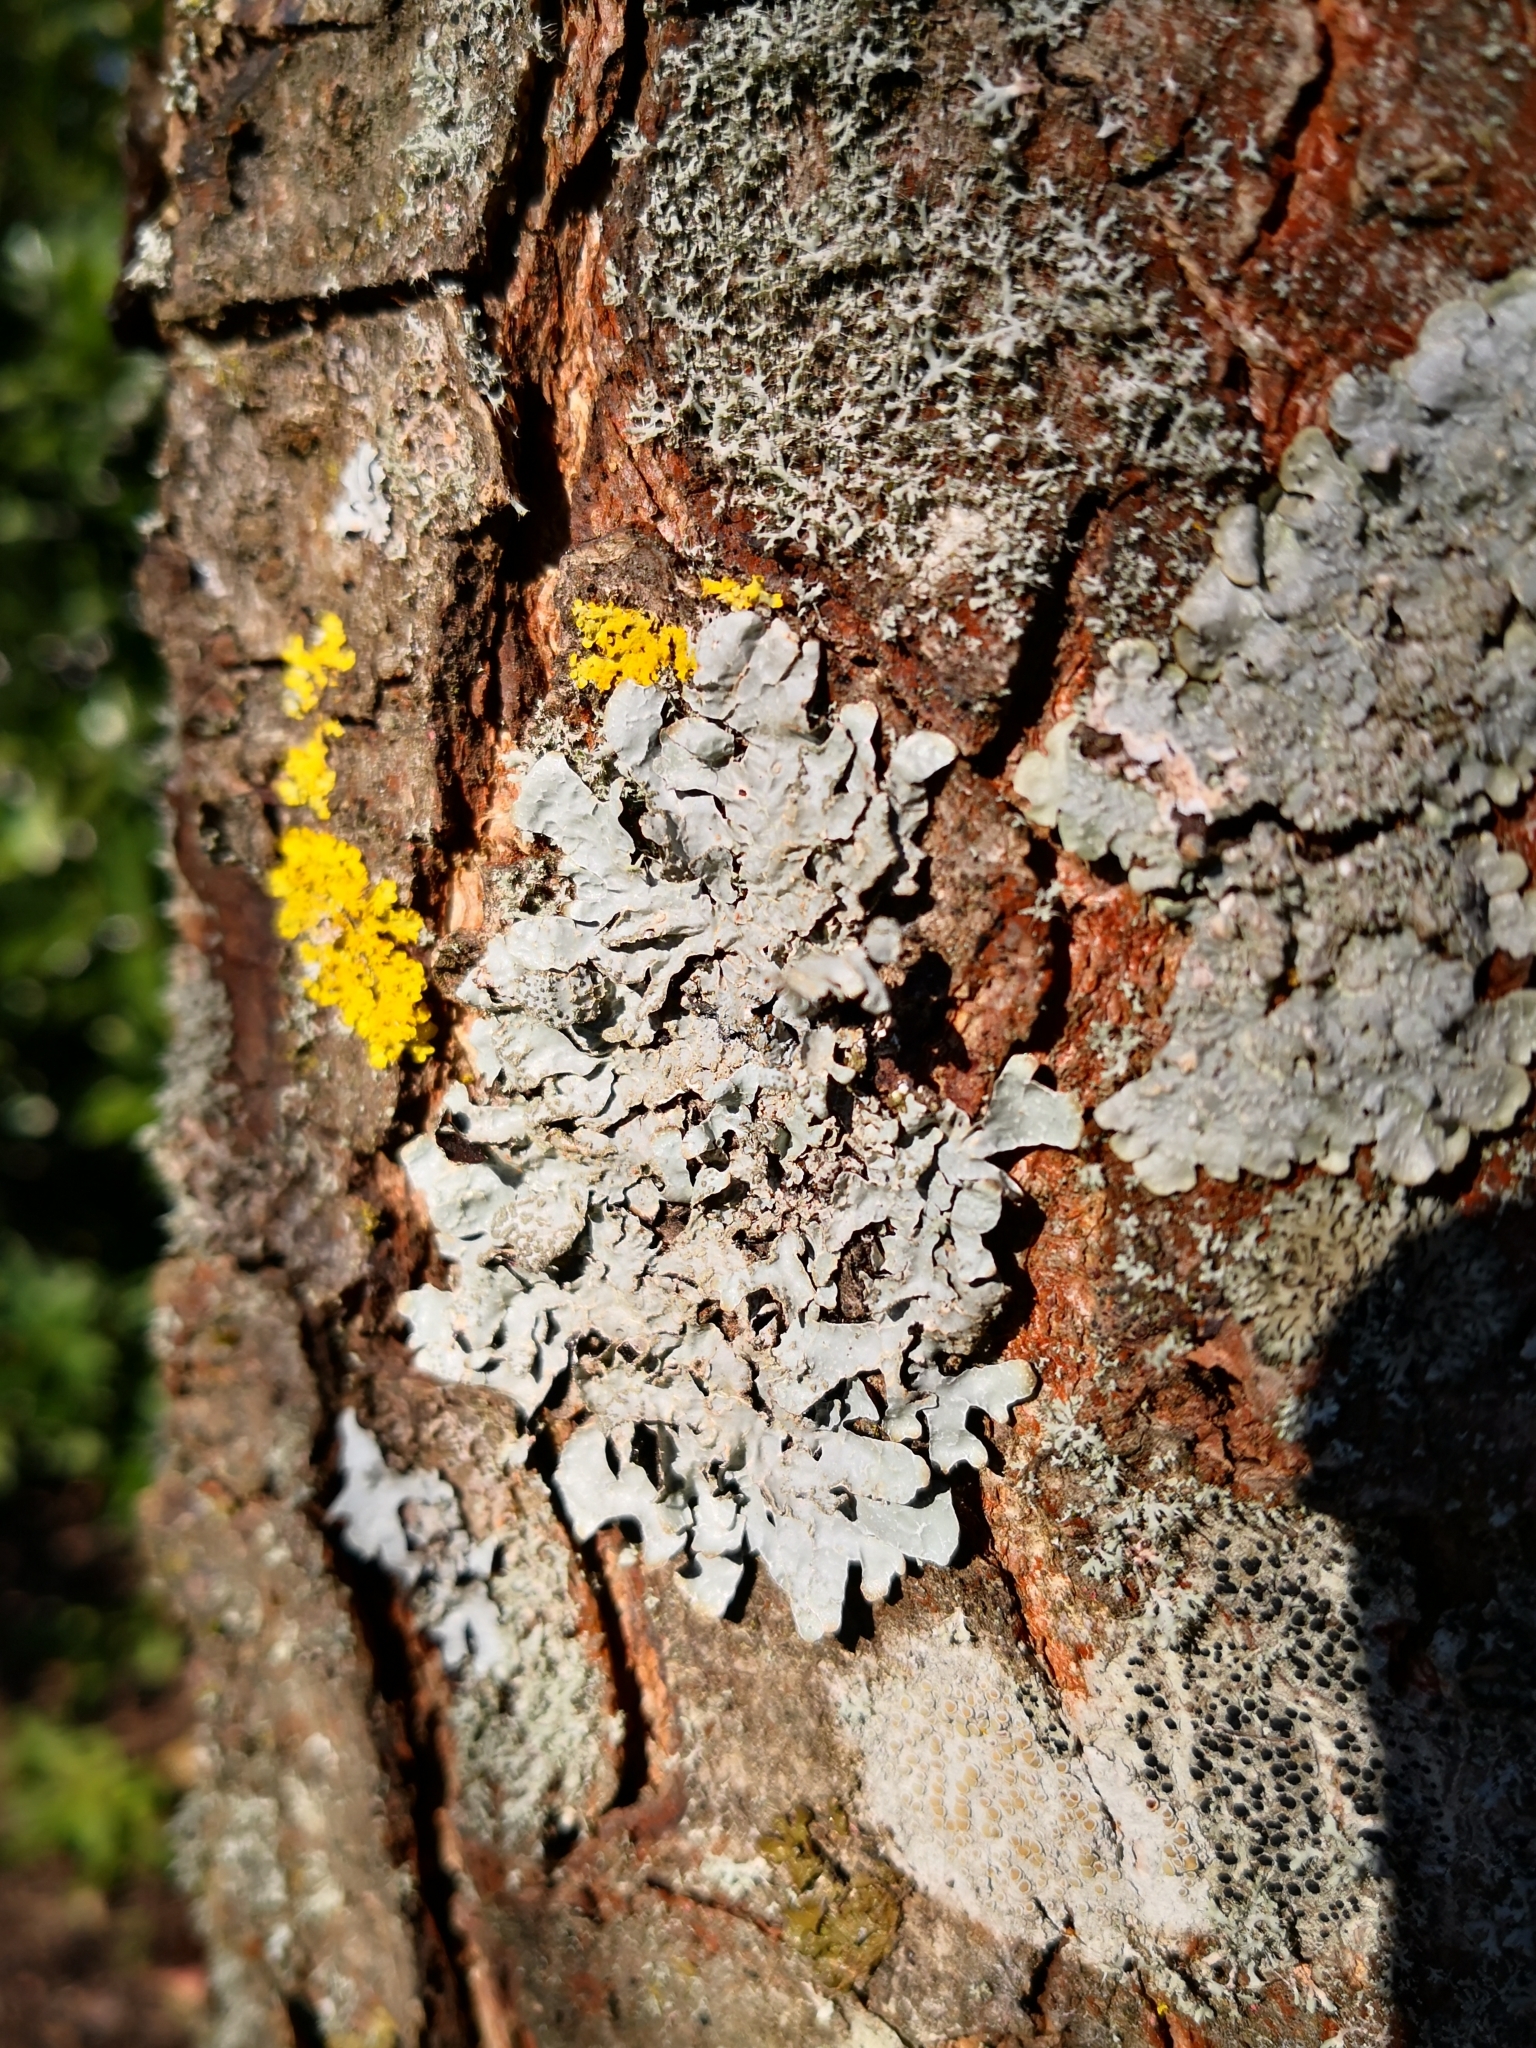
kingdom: Fungi
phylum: Ascomycota
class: Lecanoromycetes
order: Lecanorales
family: Parmeliaceae
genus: Parmelia
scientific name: Parmelia sulcata
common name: Netted shield lichen
